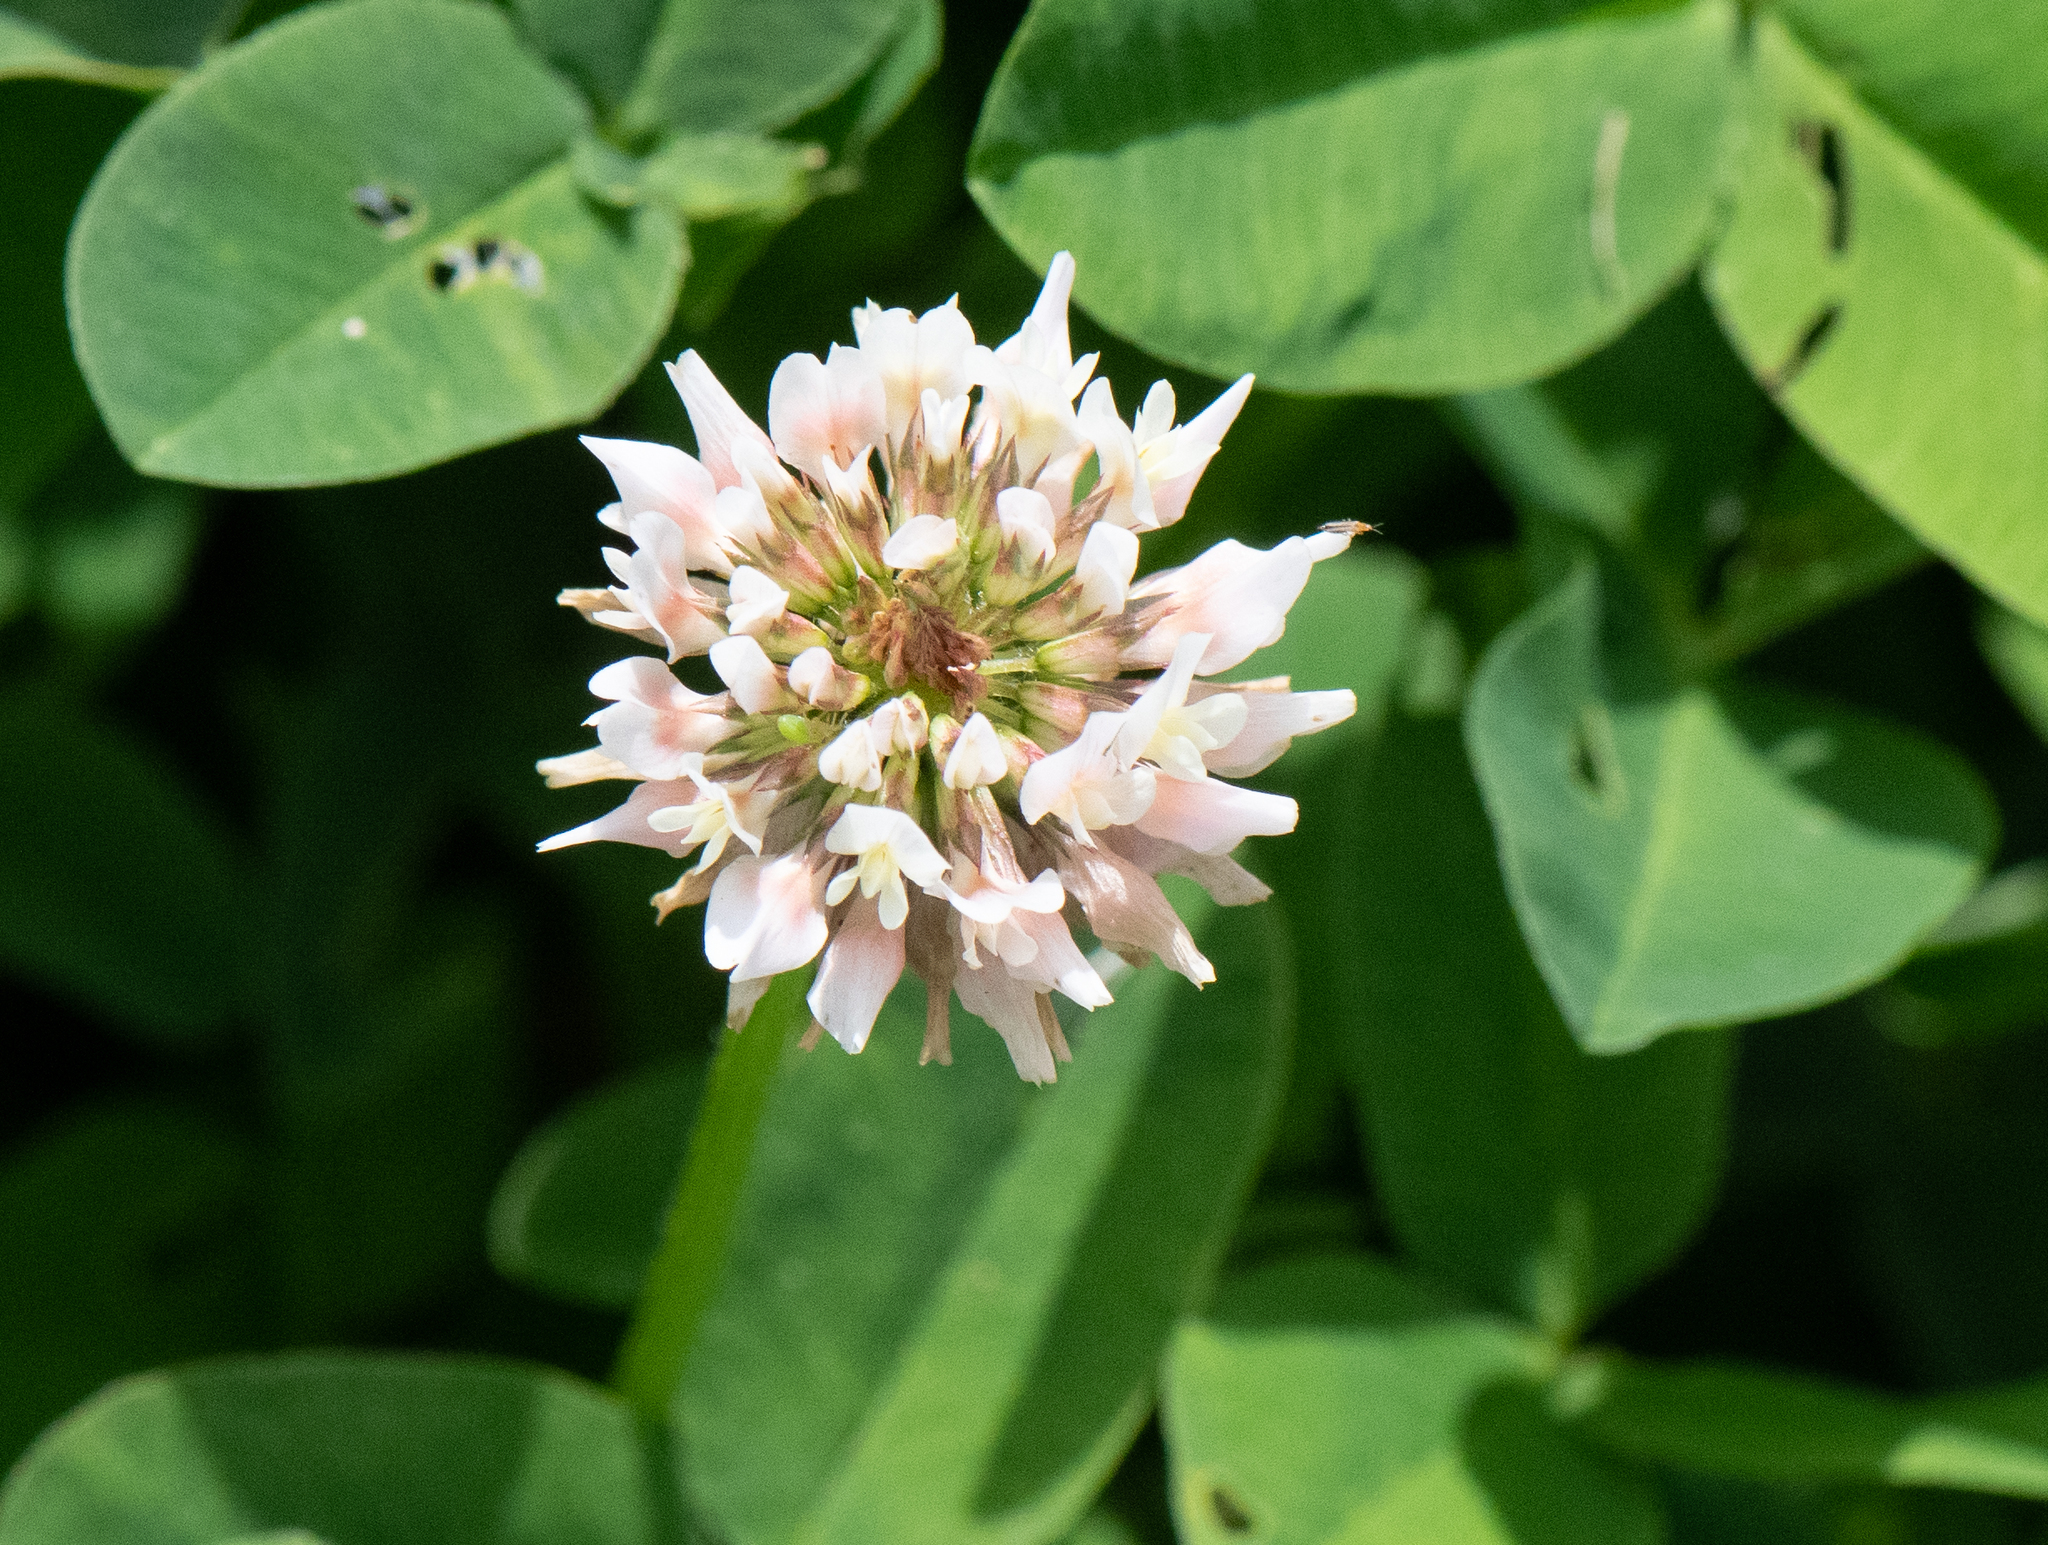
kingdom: Plantae
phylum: Tracheophyta
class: Magnoliopsida
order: Fabales
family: Fabaceae
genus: Trifolium
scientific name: Trifolium repens
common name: White clover
